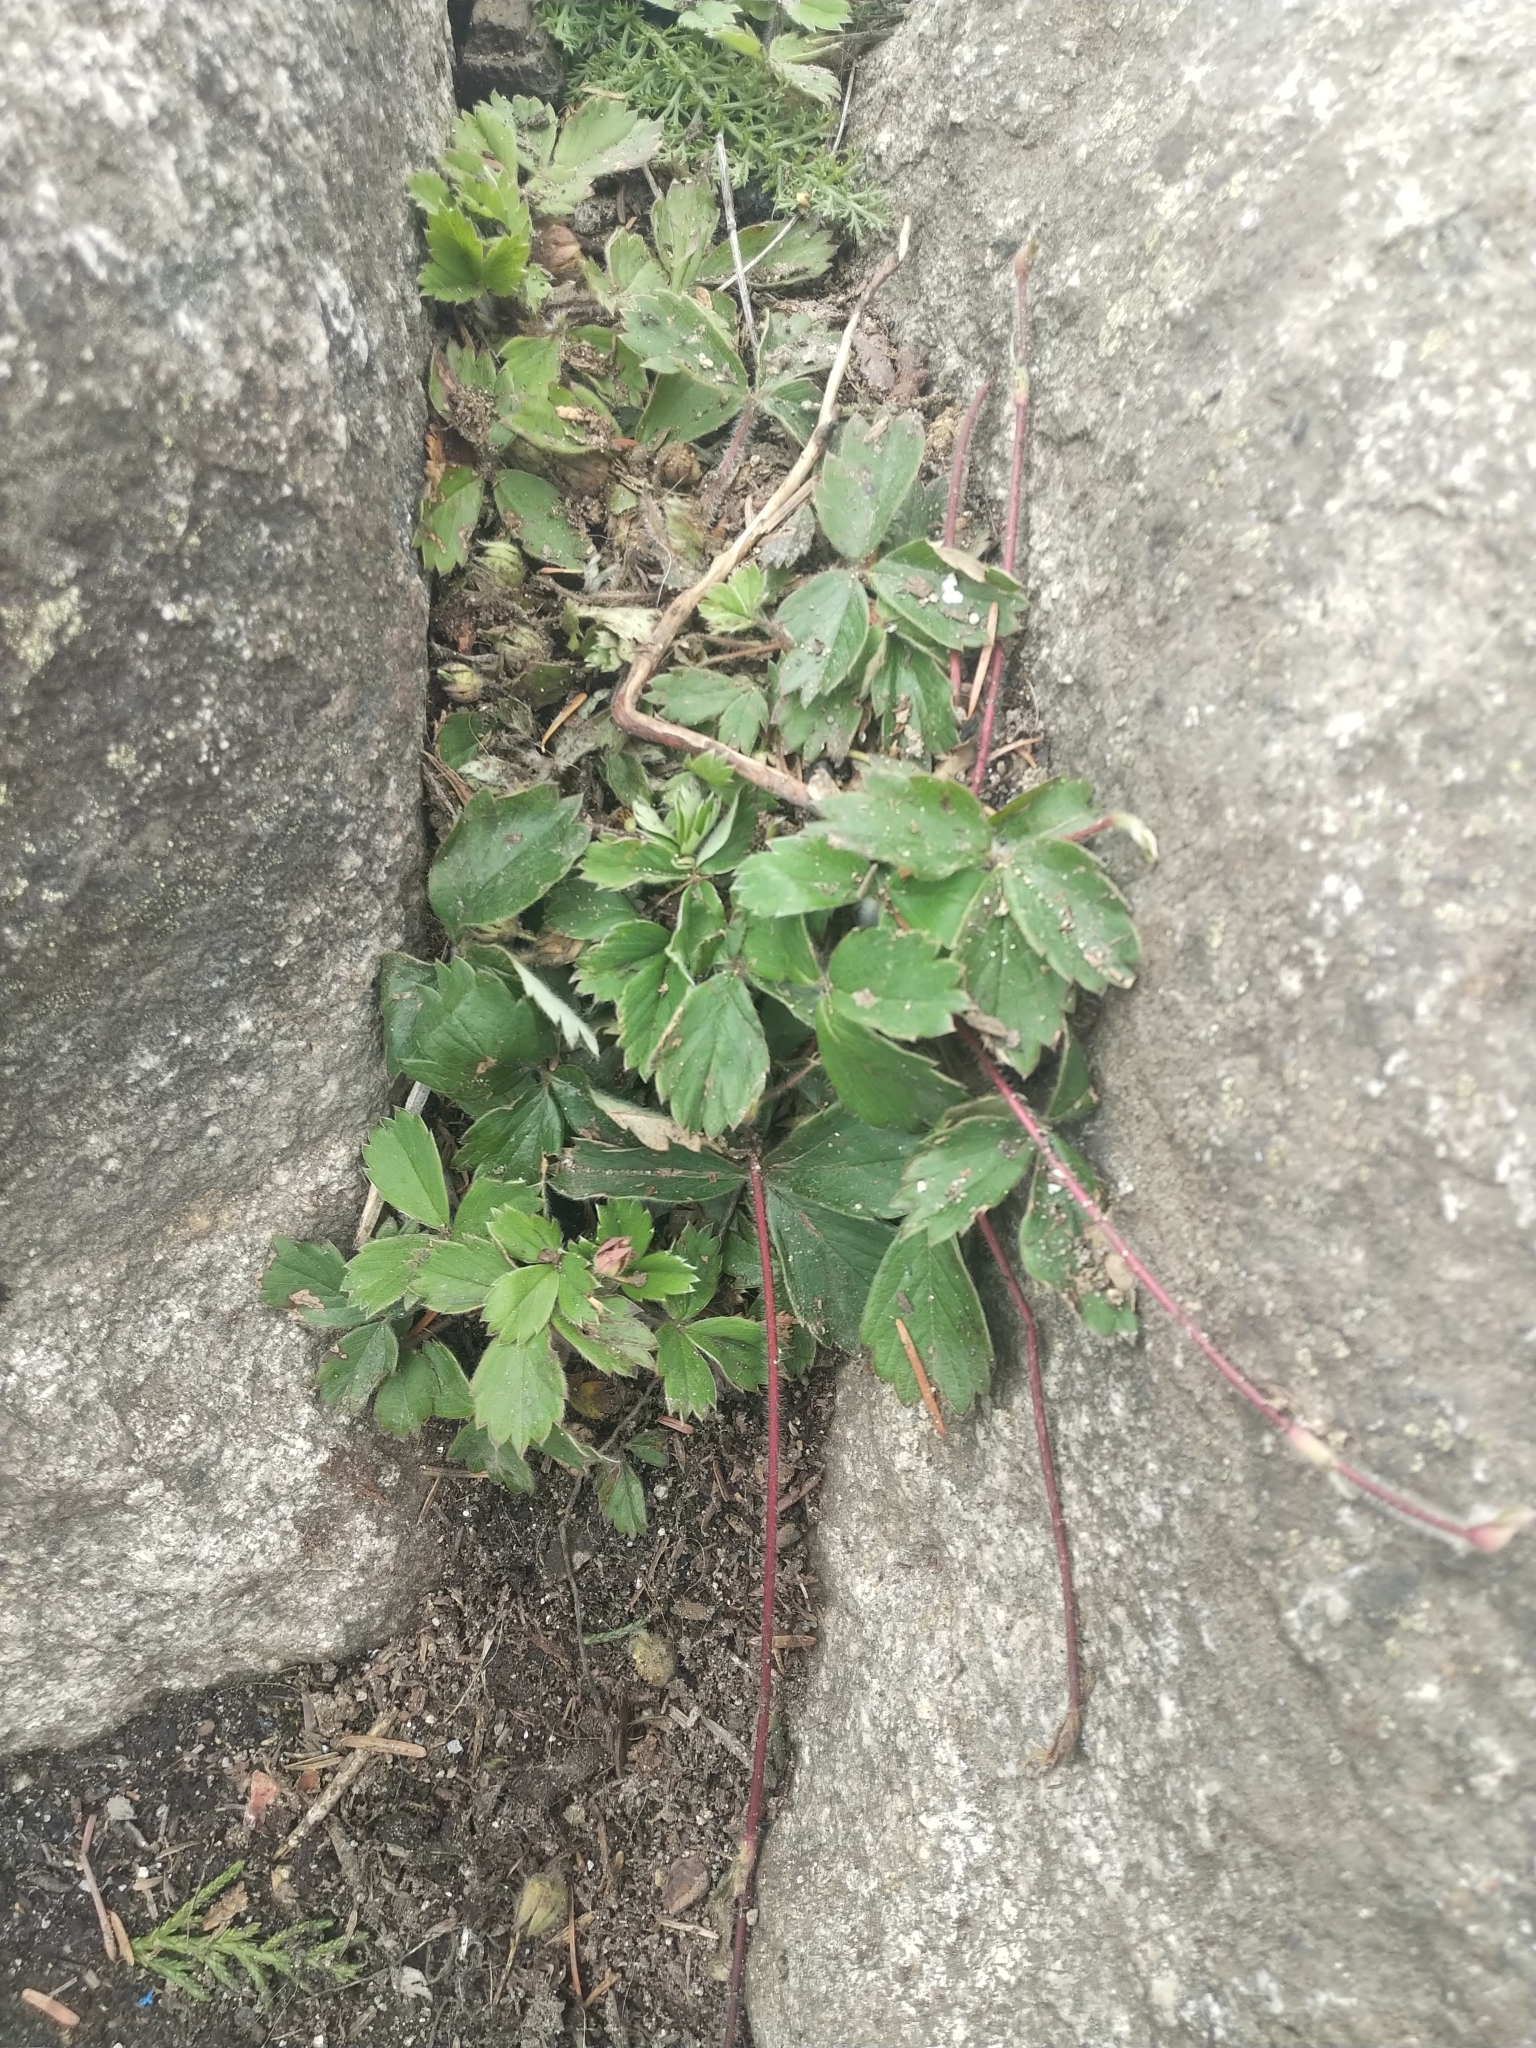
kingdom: Plantae
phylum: Tracheophyta
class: Magnoliopsida
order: Rosales
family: Rosaceae
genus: Fragaria
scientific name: Fragaria ananassa
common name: Garden strawberry
